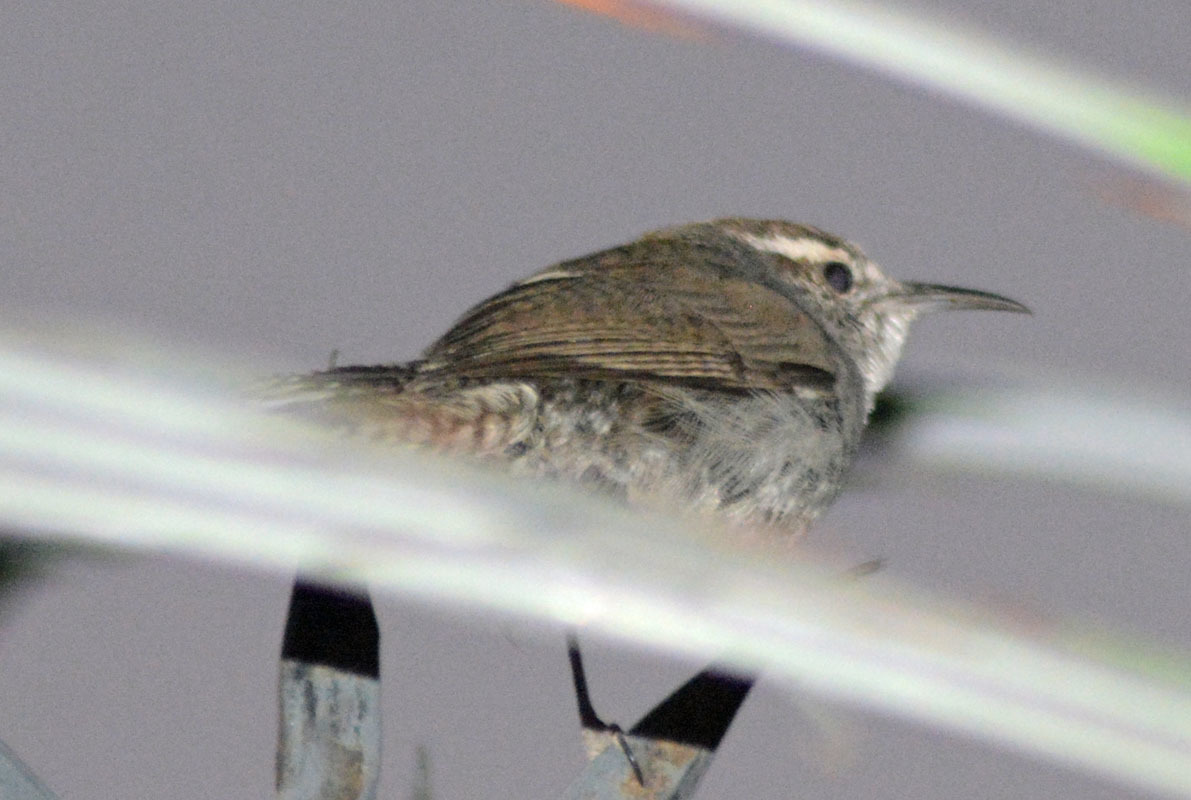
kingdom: Animalia
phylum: Chordata
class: Aves
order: Passeriformes
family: Troglodytidae
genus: Thryomanes
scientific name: Thryomanes bewickii
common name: Bewick's wren
